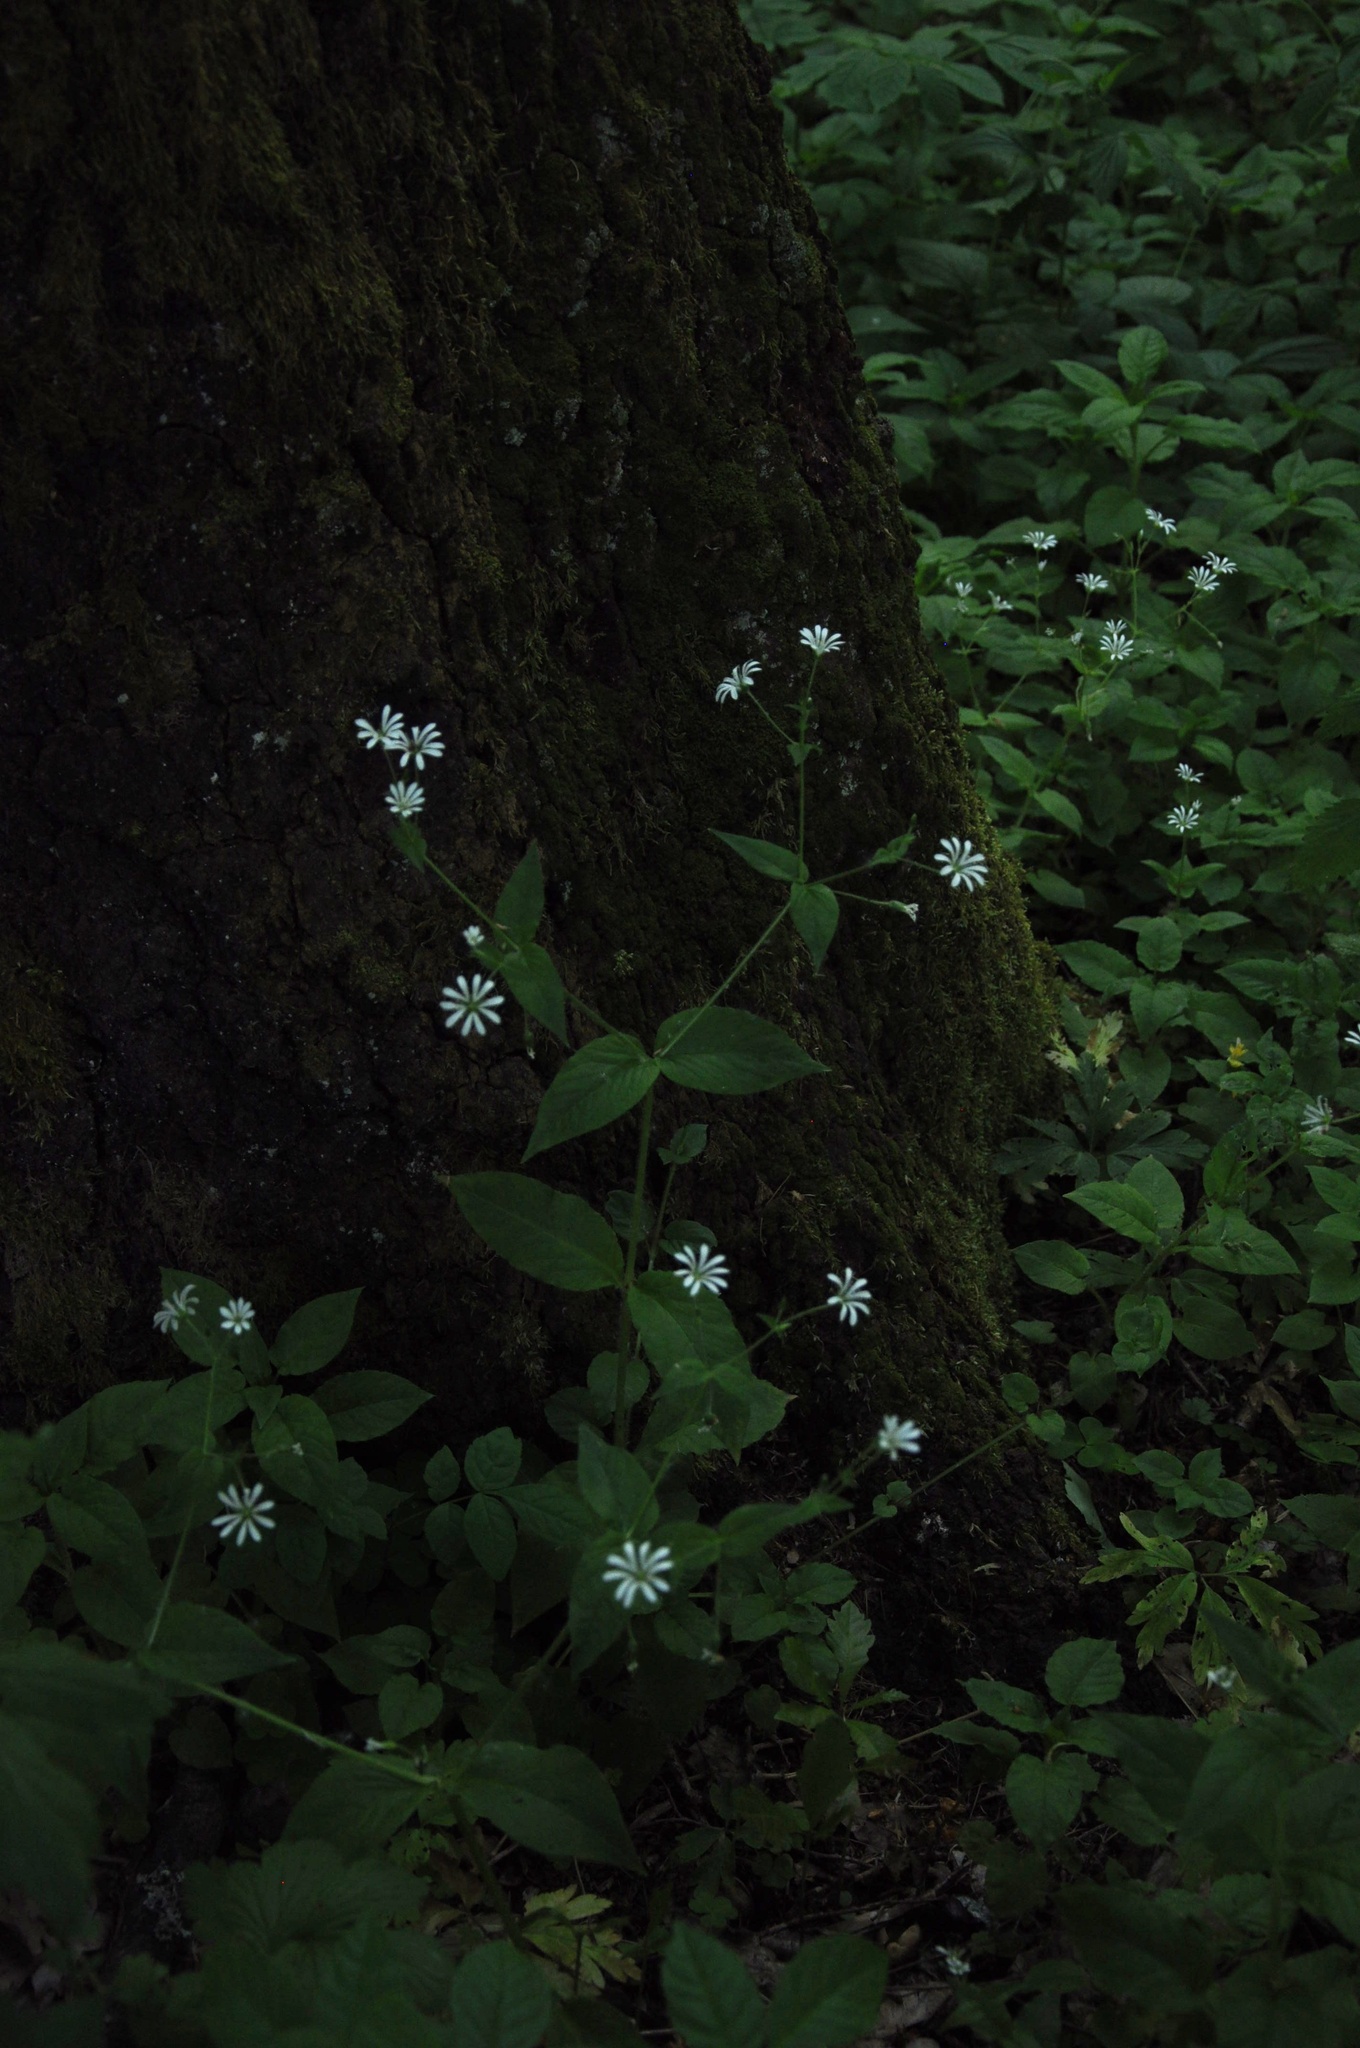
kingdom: Plantae
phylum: Tracheophyta
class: Magnoliopsida
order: Caryophyllales
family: Caryophyllaceae
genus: Stellaria
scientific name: Stellaria nemorum
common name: Wood stitchwort
